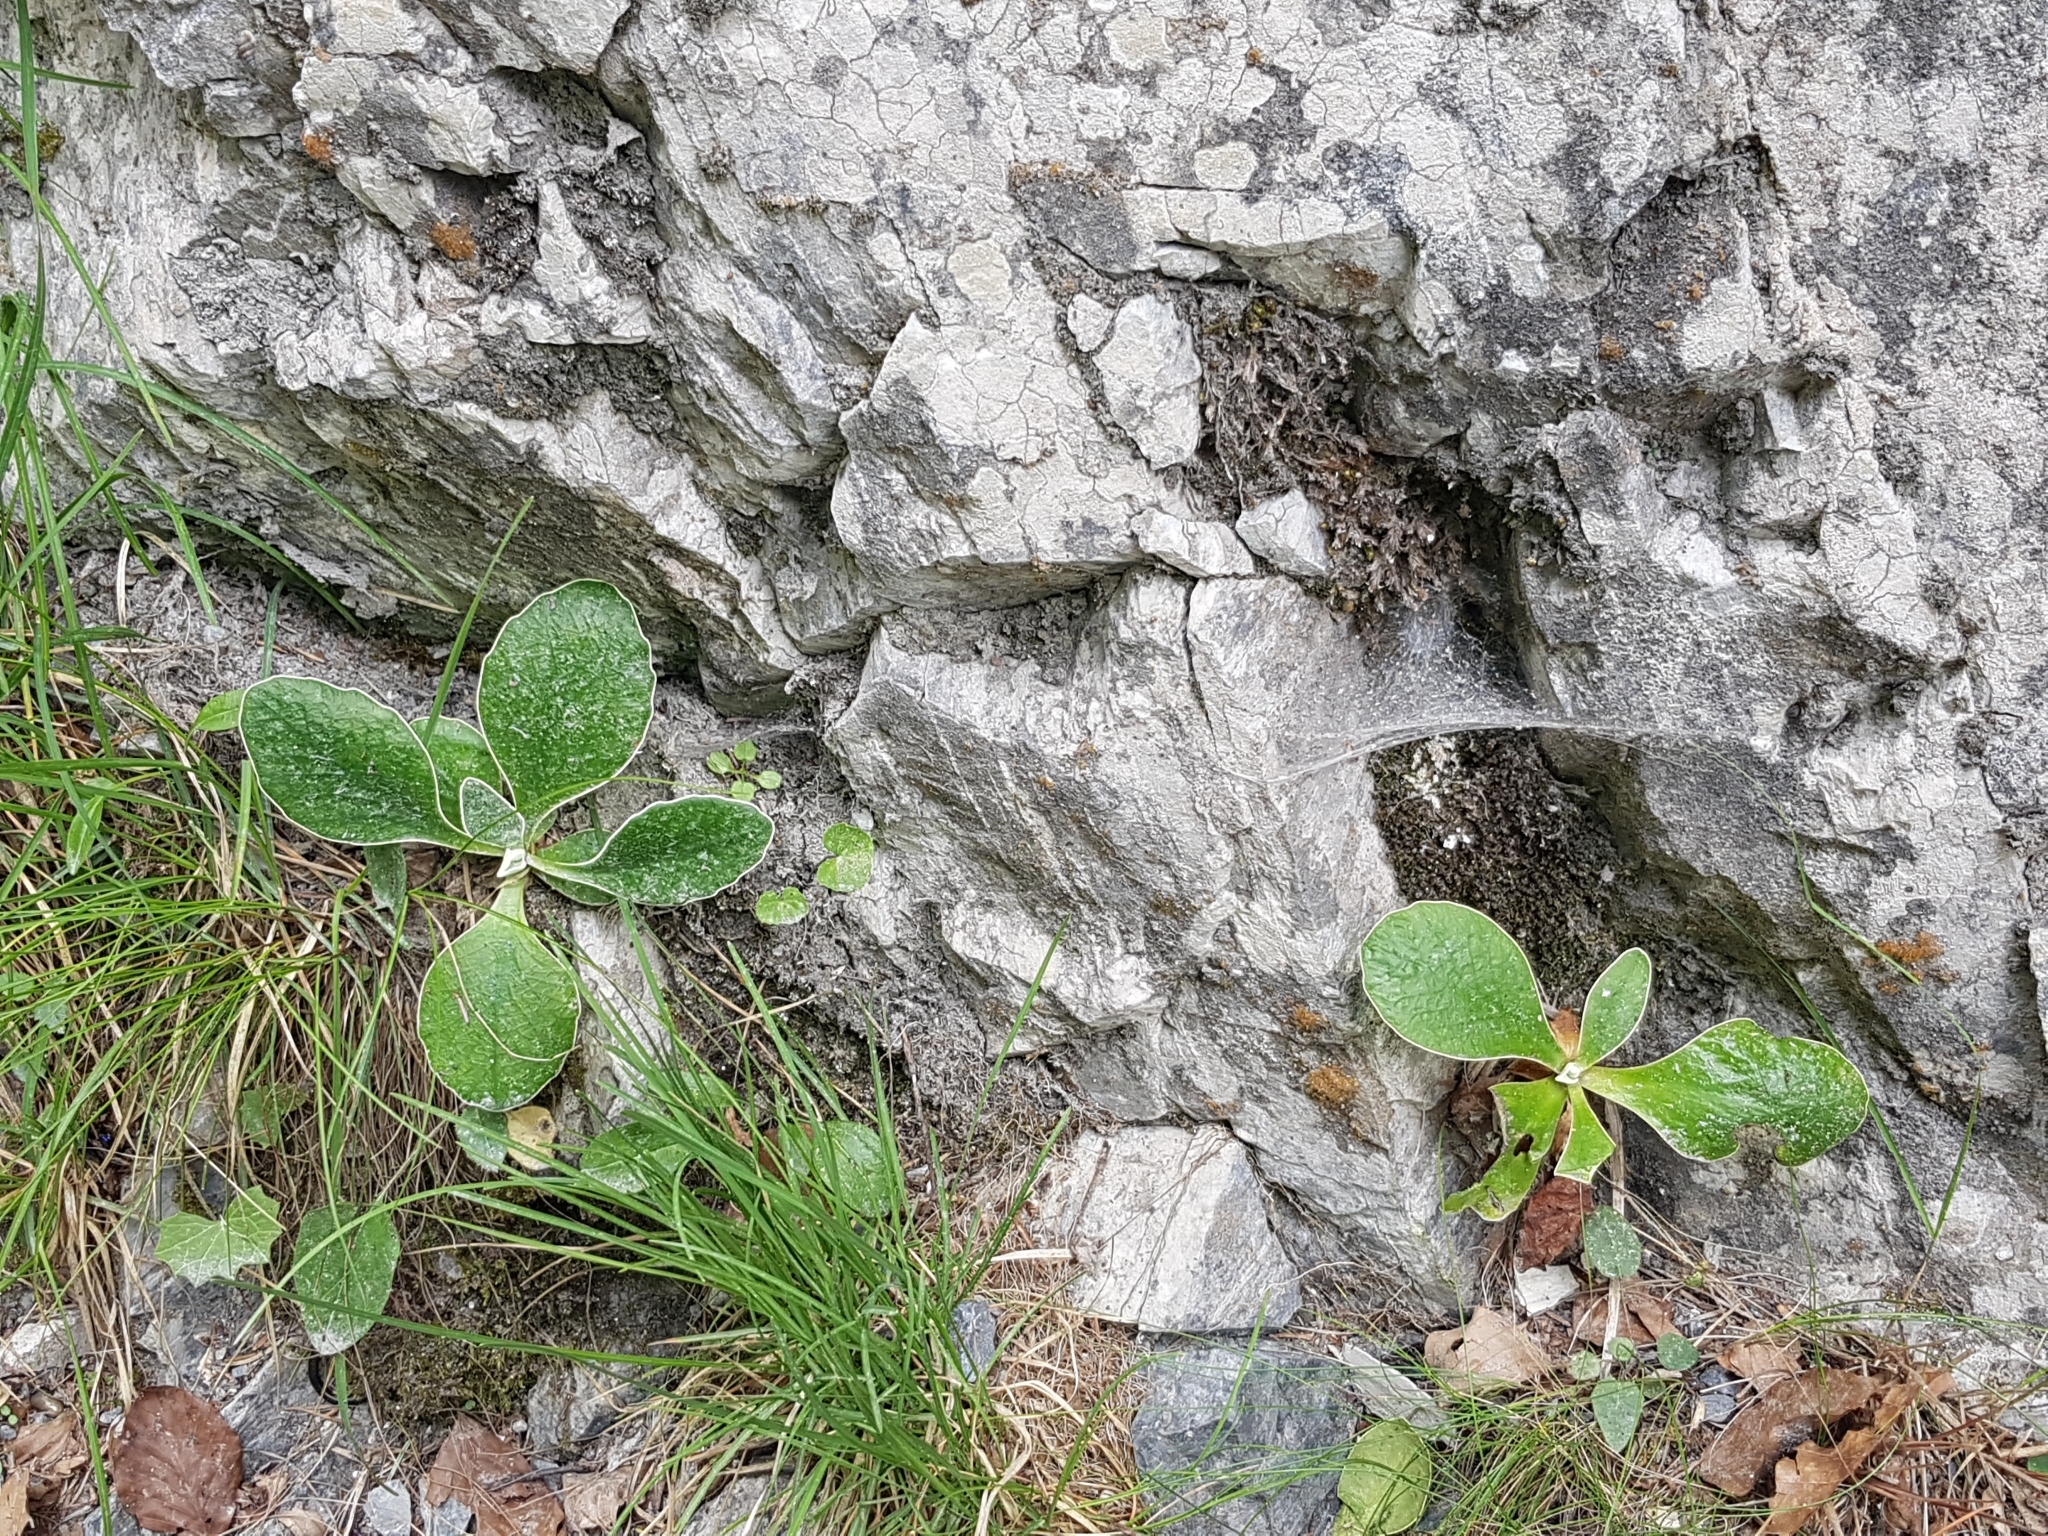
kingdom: Plantae
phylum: Tracheophyta
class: Magnoliopsida
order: Ericales
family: Primulaceae
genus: Primula
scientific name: Primula auricula
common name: Auricula
